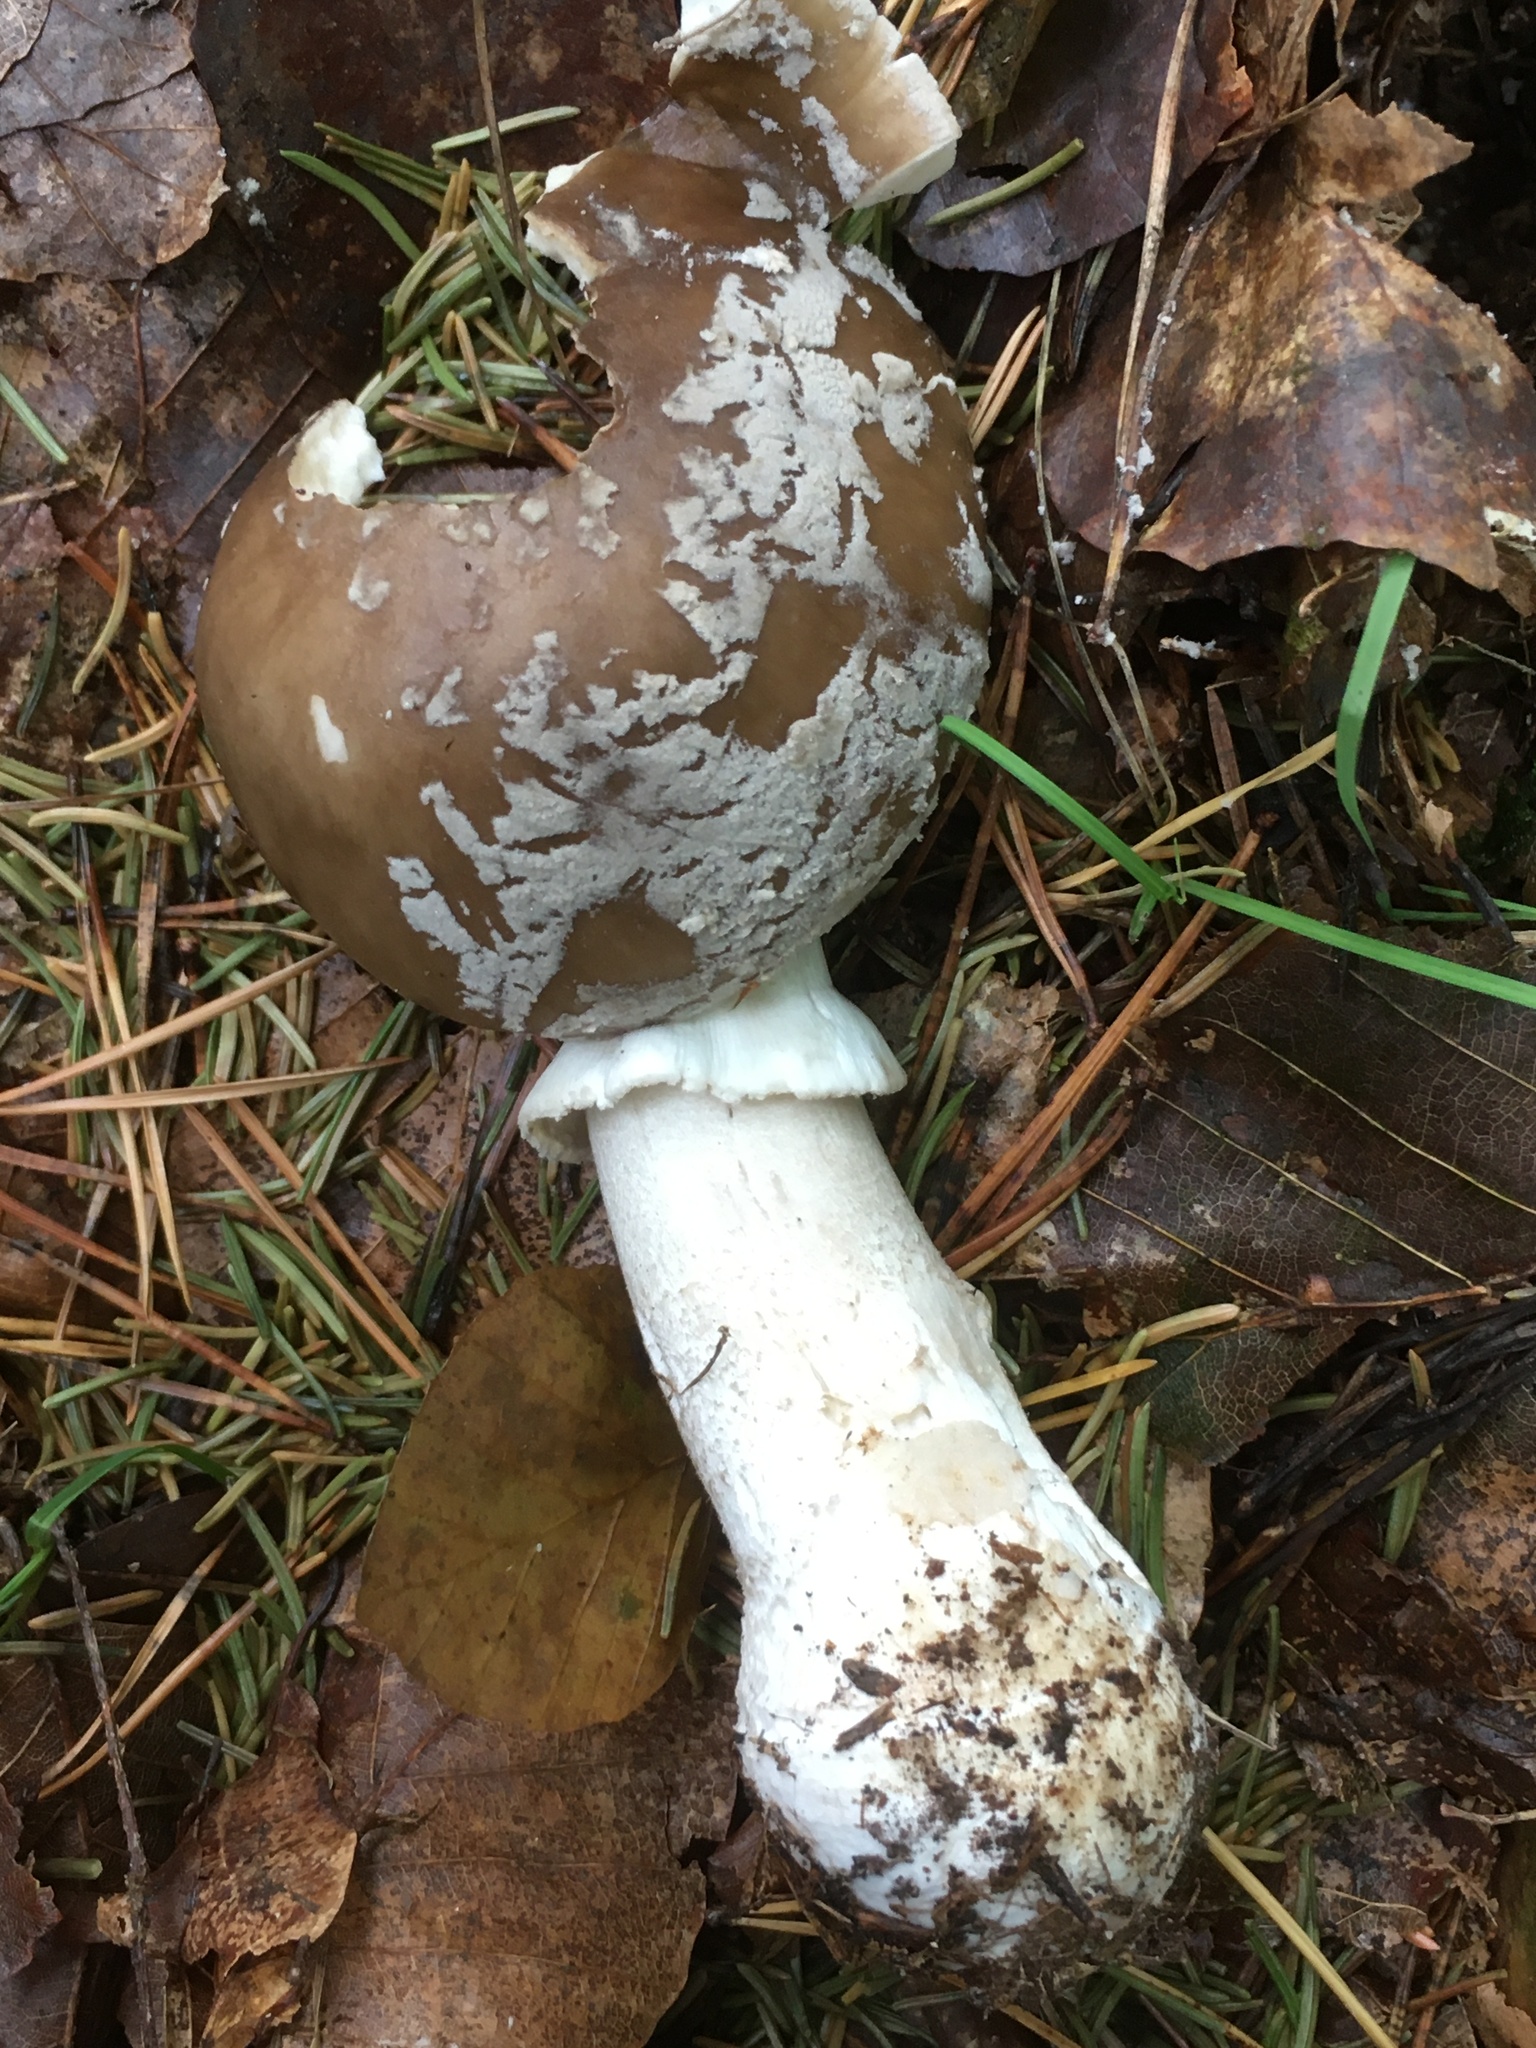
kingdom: Fungi
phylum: Basidiomycota
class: Agaricomycetes
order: Agaricales
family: Amanitaceae
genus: Amanita
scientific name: Amanita excelsa
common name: European false blusher
